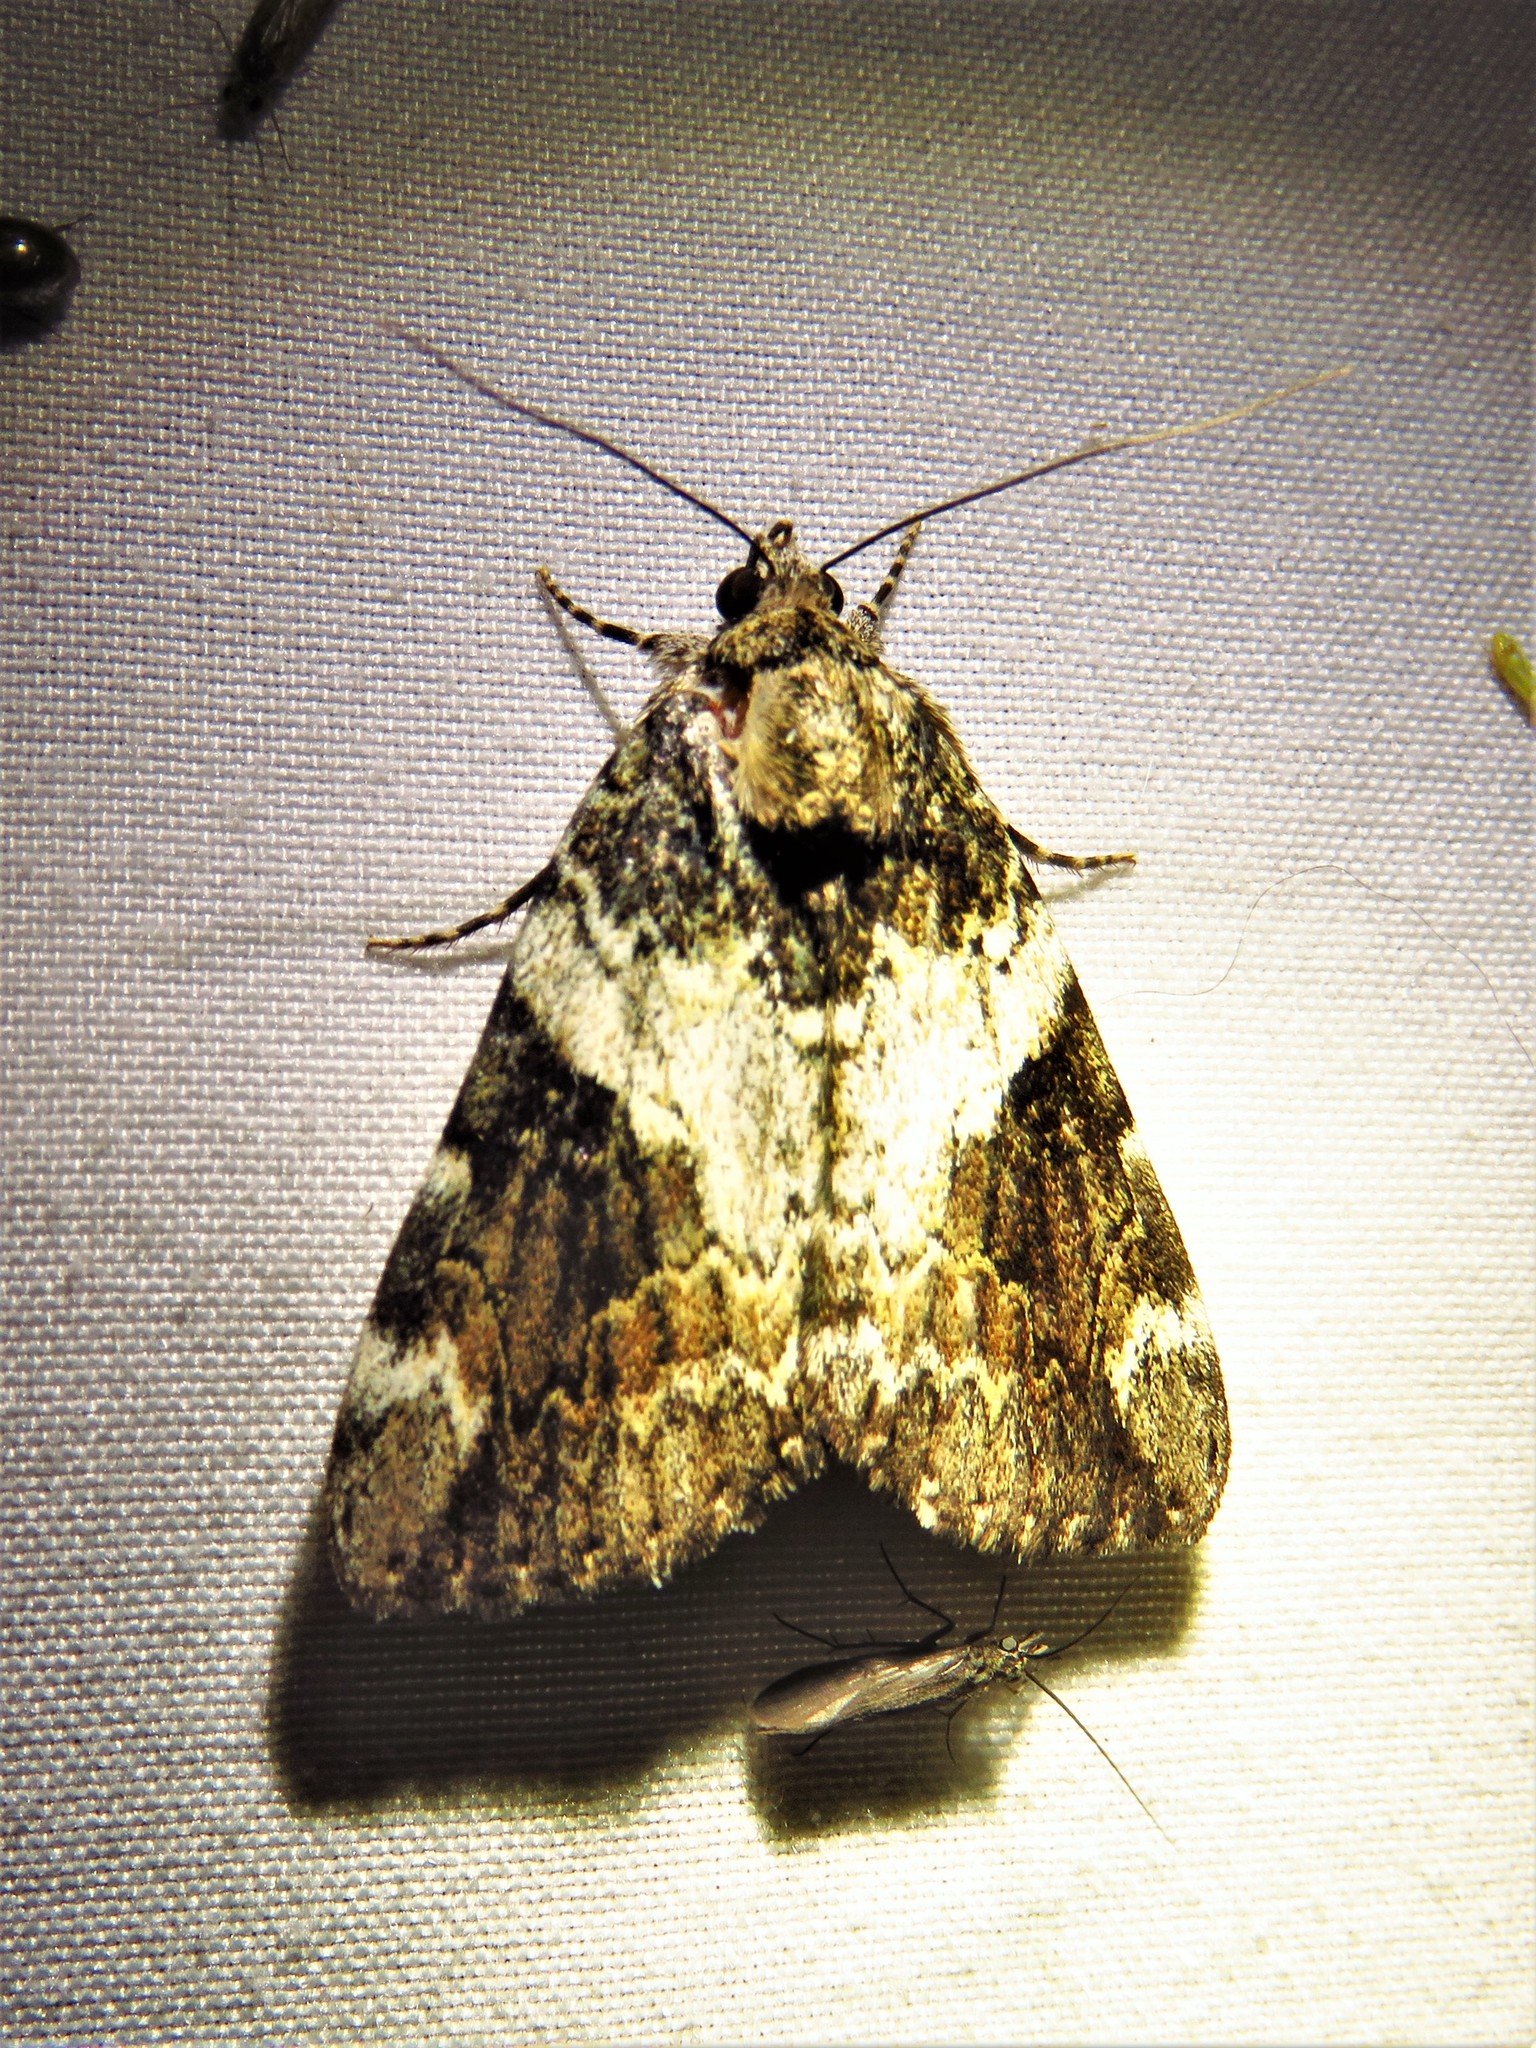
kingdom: Animalia
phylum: Arthropoda
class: Insecta
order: Lepidoptera
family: Erebidae
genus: Catocala
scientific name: Catocala micronympha
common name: Little nymph underwing
